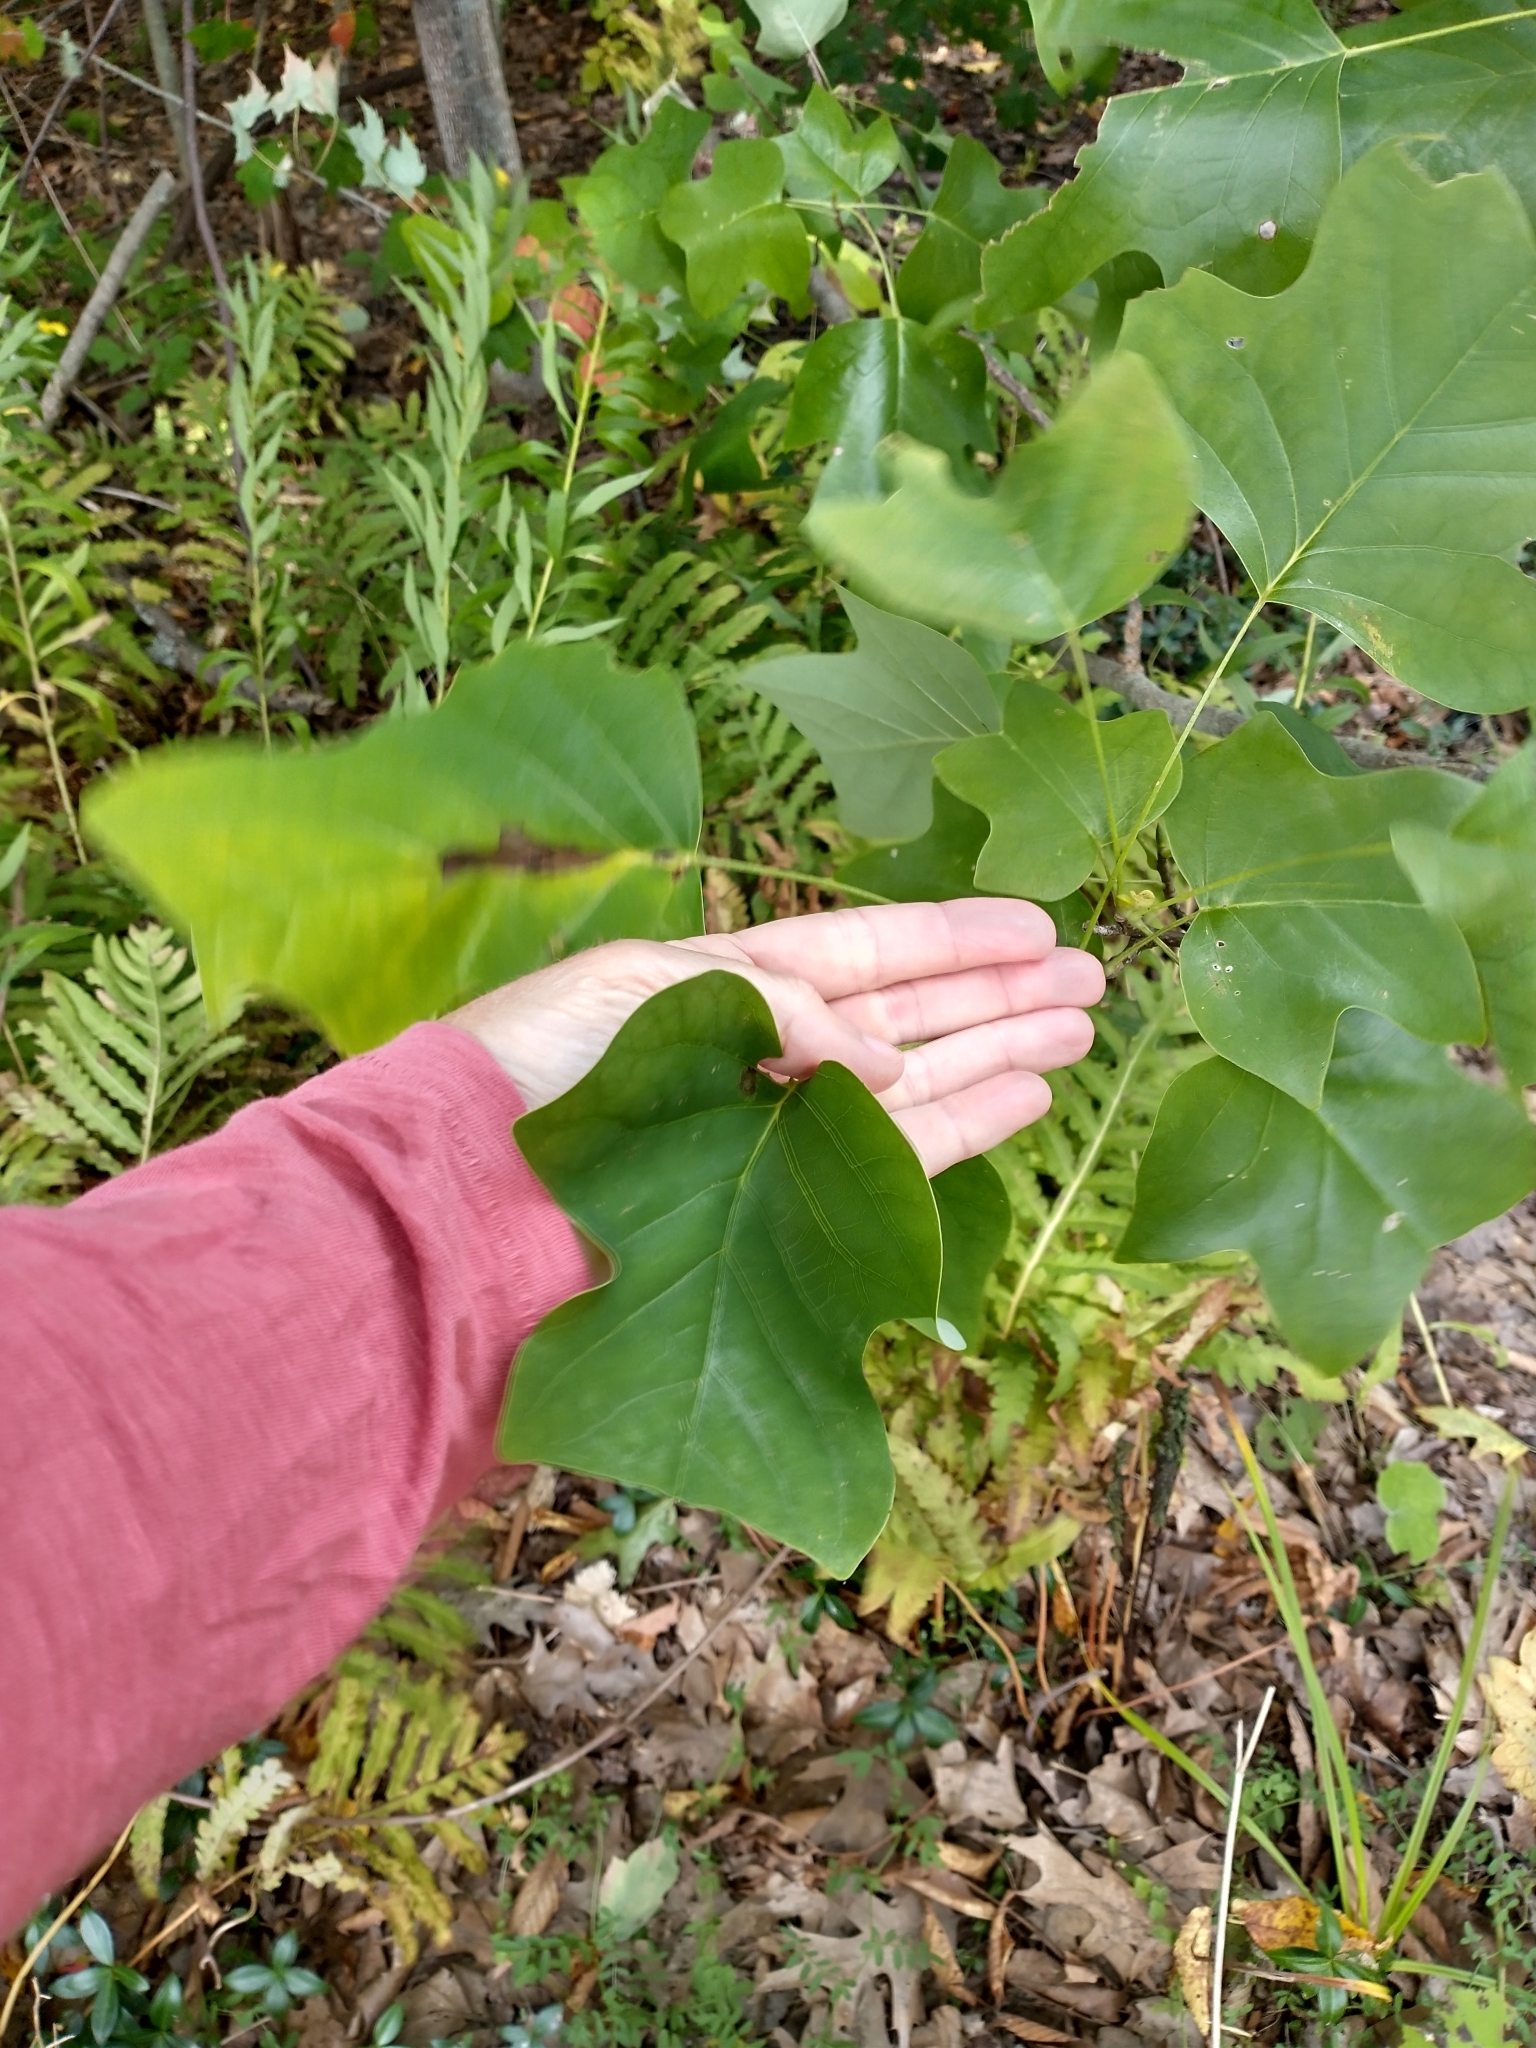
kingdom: Plantae
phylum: Tracheophyta
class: Magnoliopsida
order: Magnoliales
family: Magnoliaceae
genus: Liriodendron
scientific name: Liriodendron tulipifera
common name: Tulip tree
